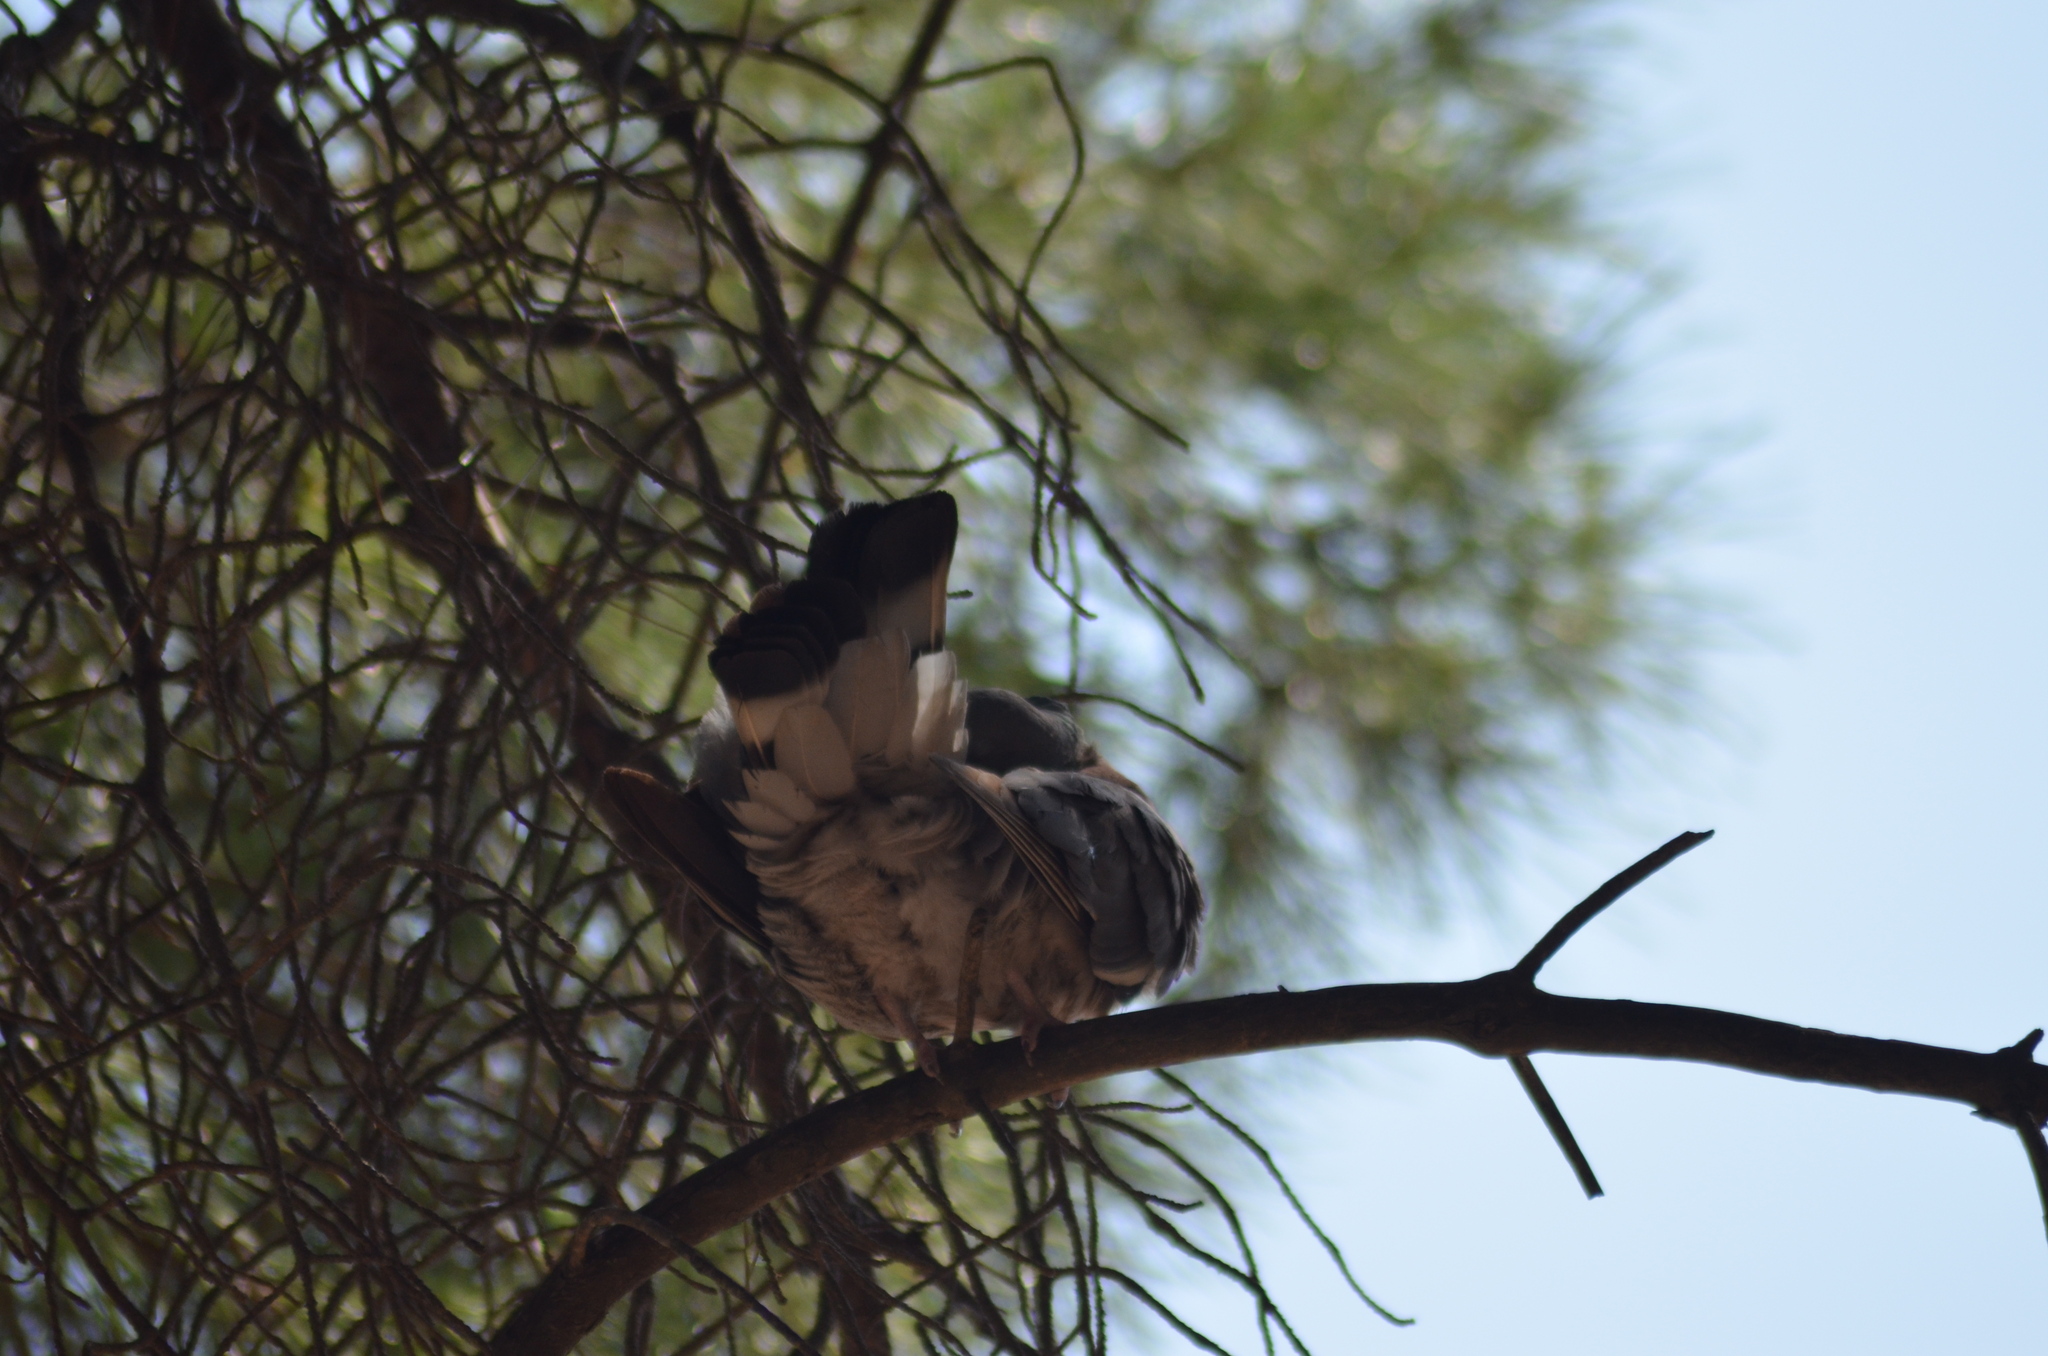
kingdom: Animalia
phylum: Chordata
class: Aves
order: Columbiformes
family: Columbidae
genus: Columba
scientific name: Columba palumbus
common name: Common wood pigeon
